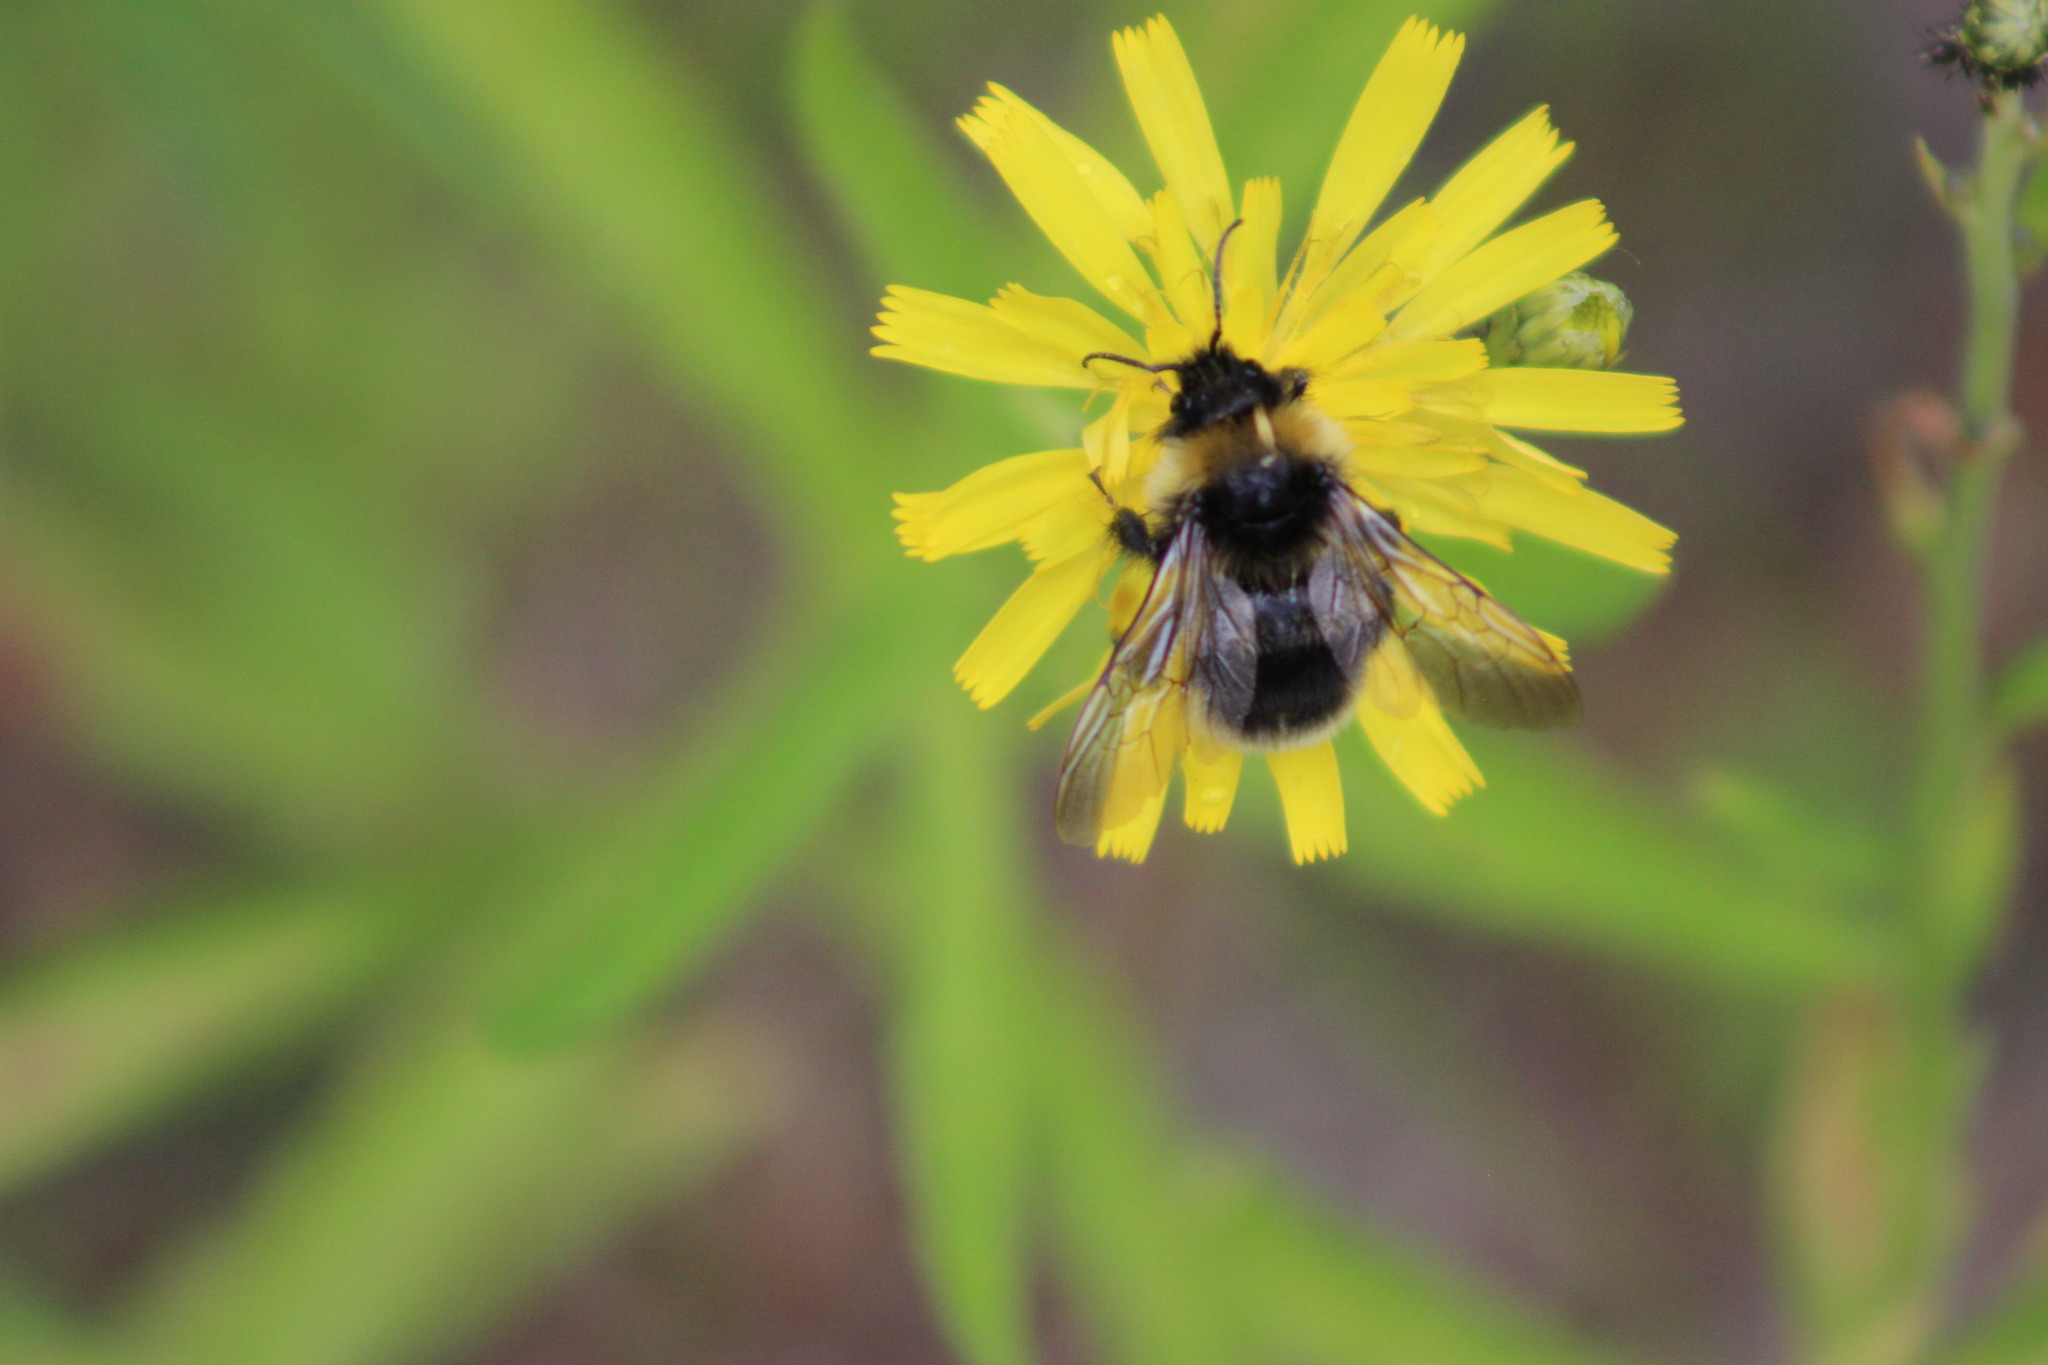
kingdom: Animalia
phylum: Arthropoda
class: Insecta
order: Hymenoptera
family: Apidae
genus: Bombus
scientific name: Bombus bohemicus
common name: Gypsy cuckoo bee
